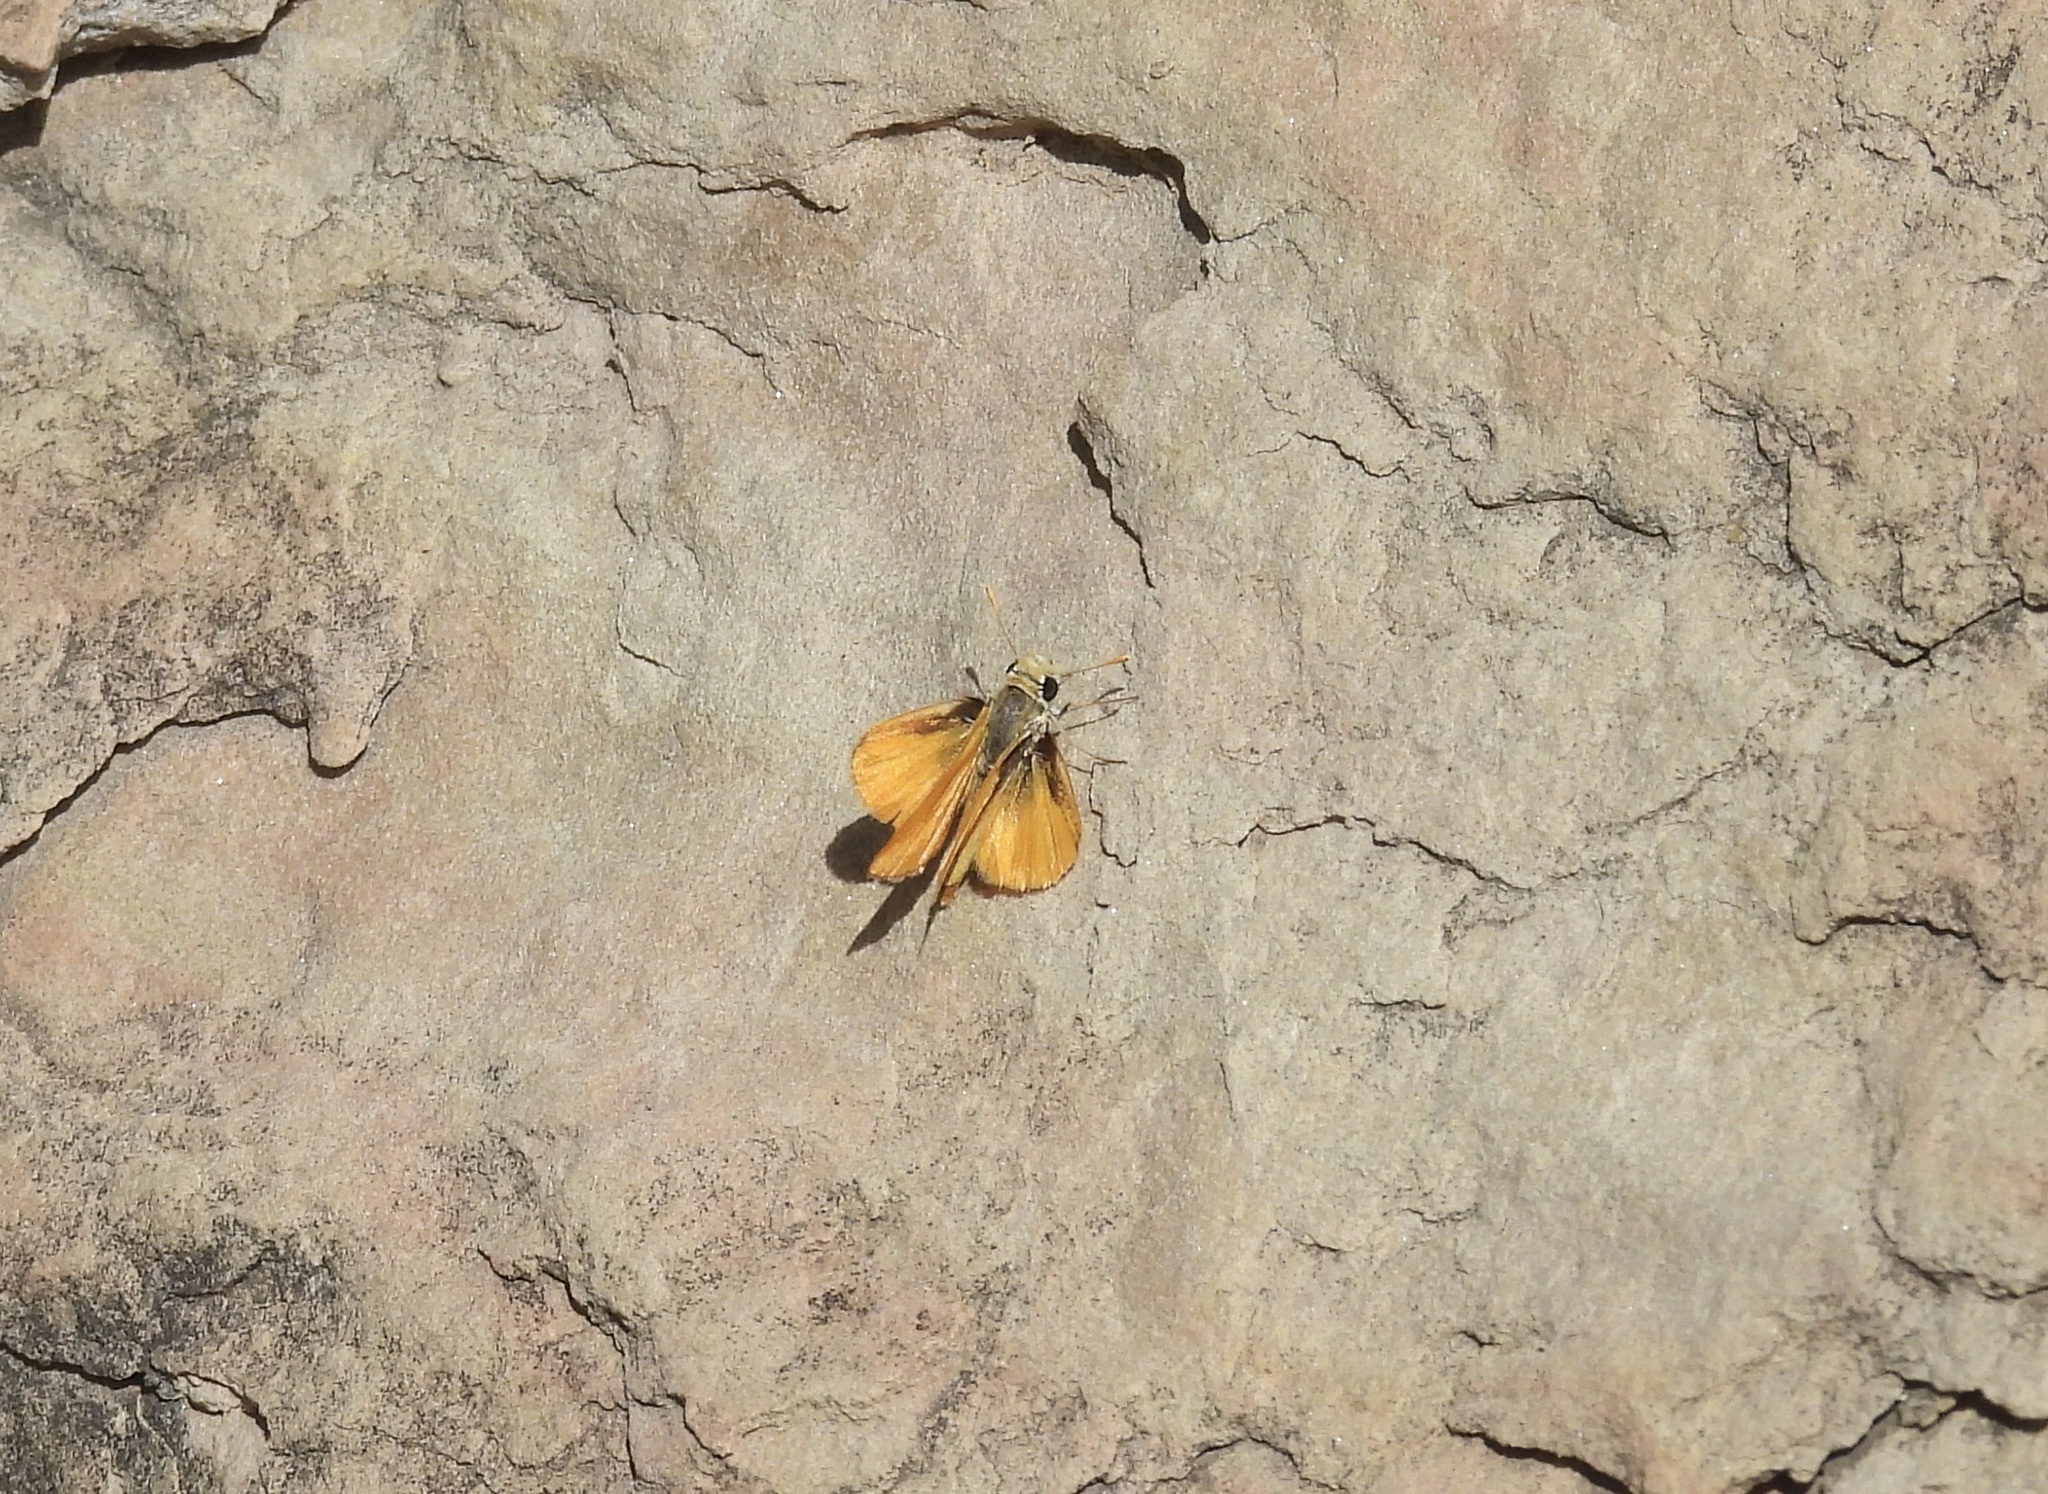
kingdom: Animalia
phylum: Arthropoda
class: Insecta
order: Lepidoptera
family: Hesperiidae
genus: Copaeodes
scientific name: Copaeodes aurantiaca
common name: Orange skipperling
